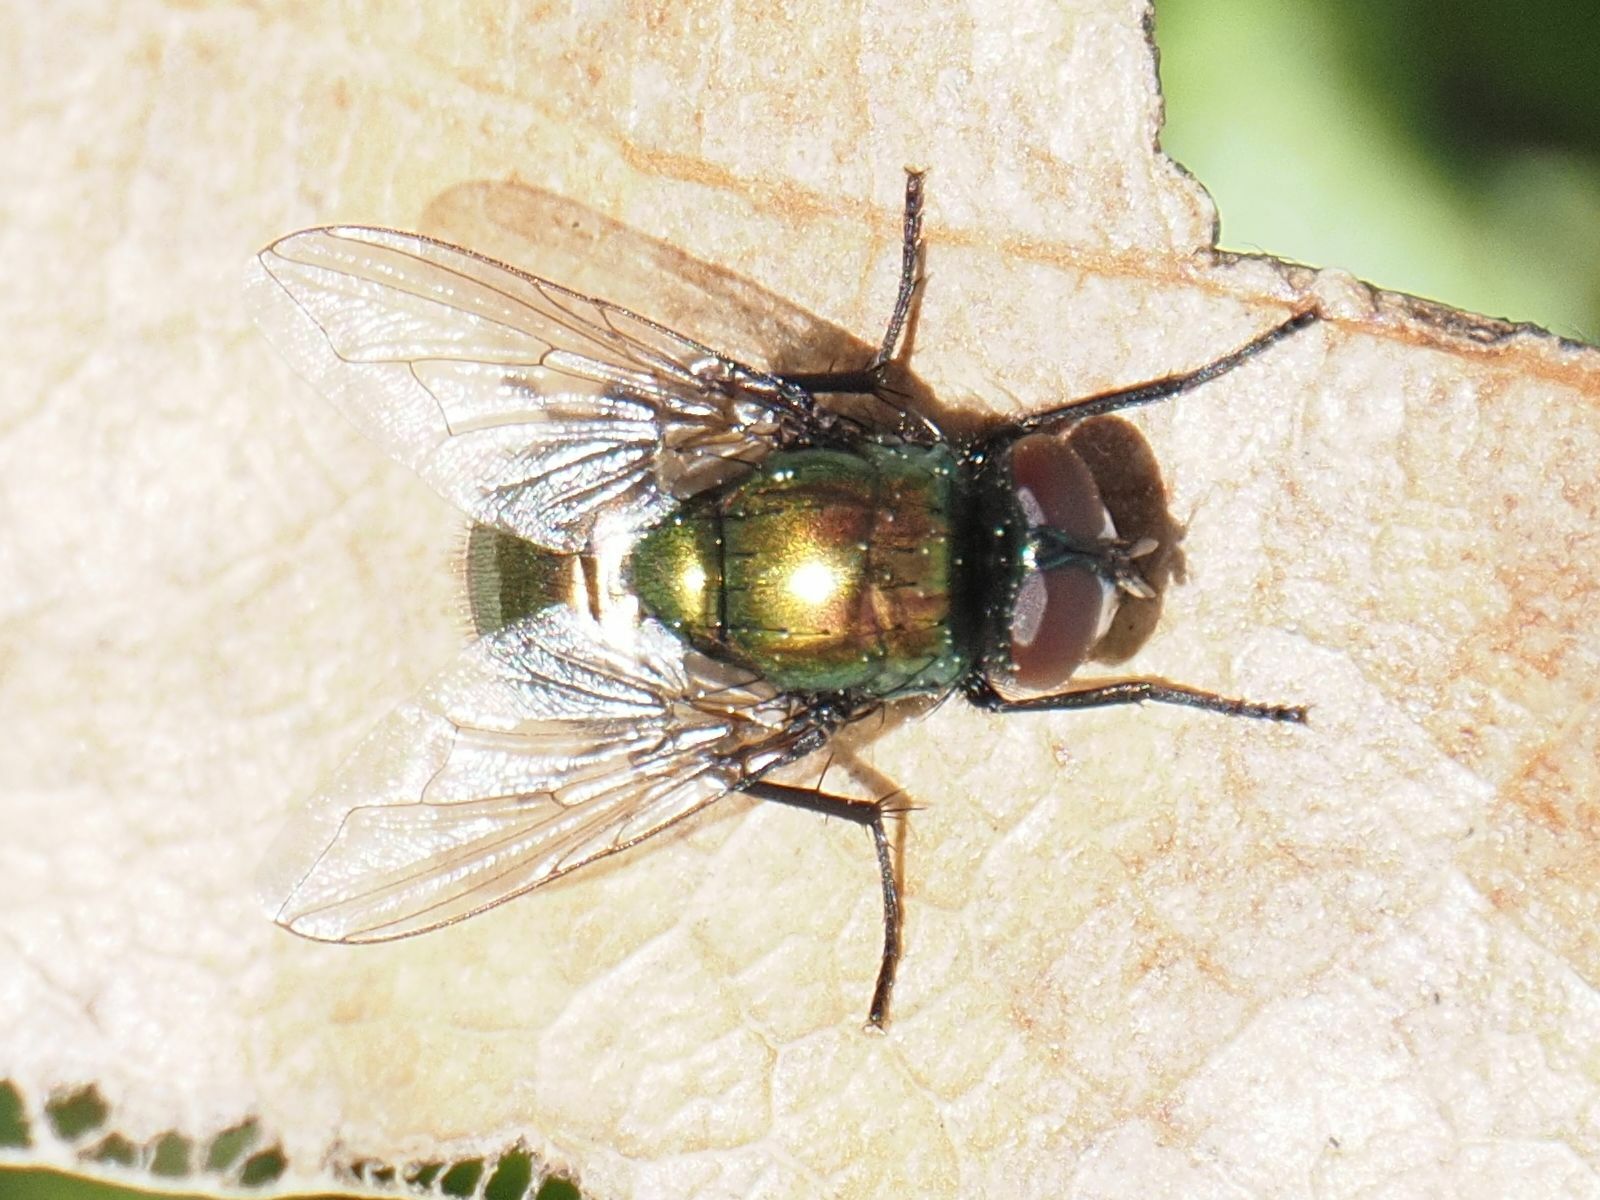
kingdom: Animalia
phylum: Arthropoda
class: Insecta
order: Diptera
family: Muscidae
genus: Neomyia
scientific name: Neomyia cornicina
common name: House fly
